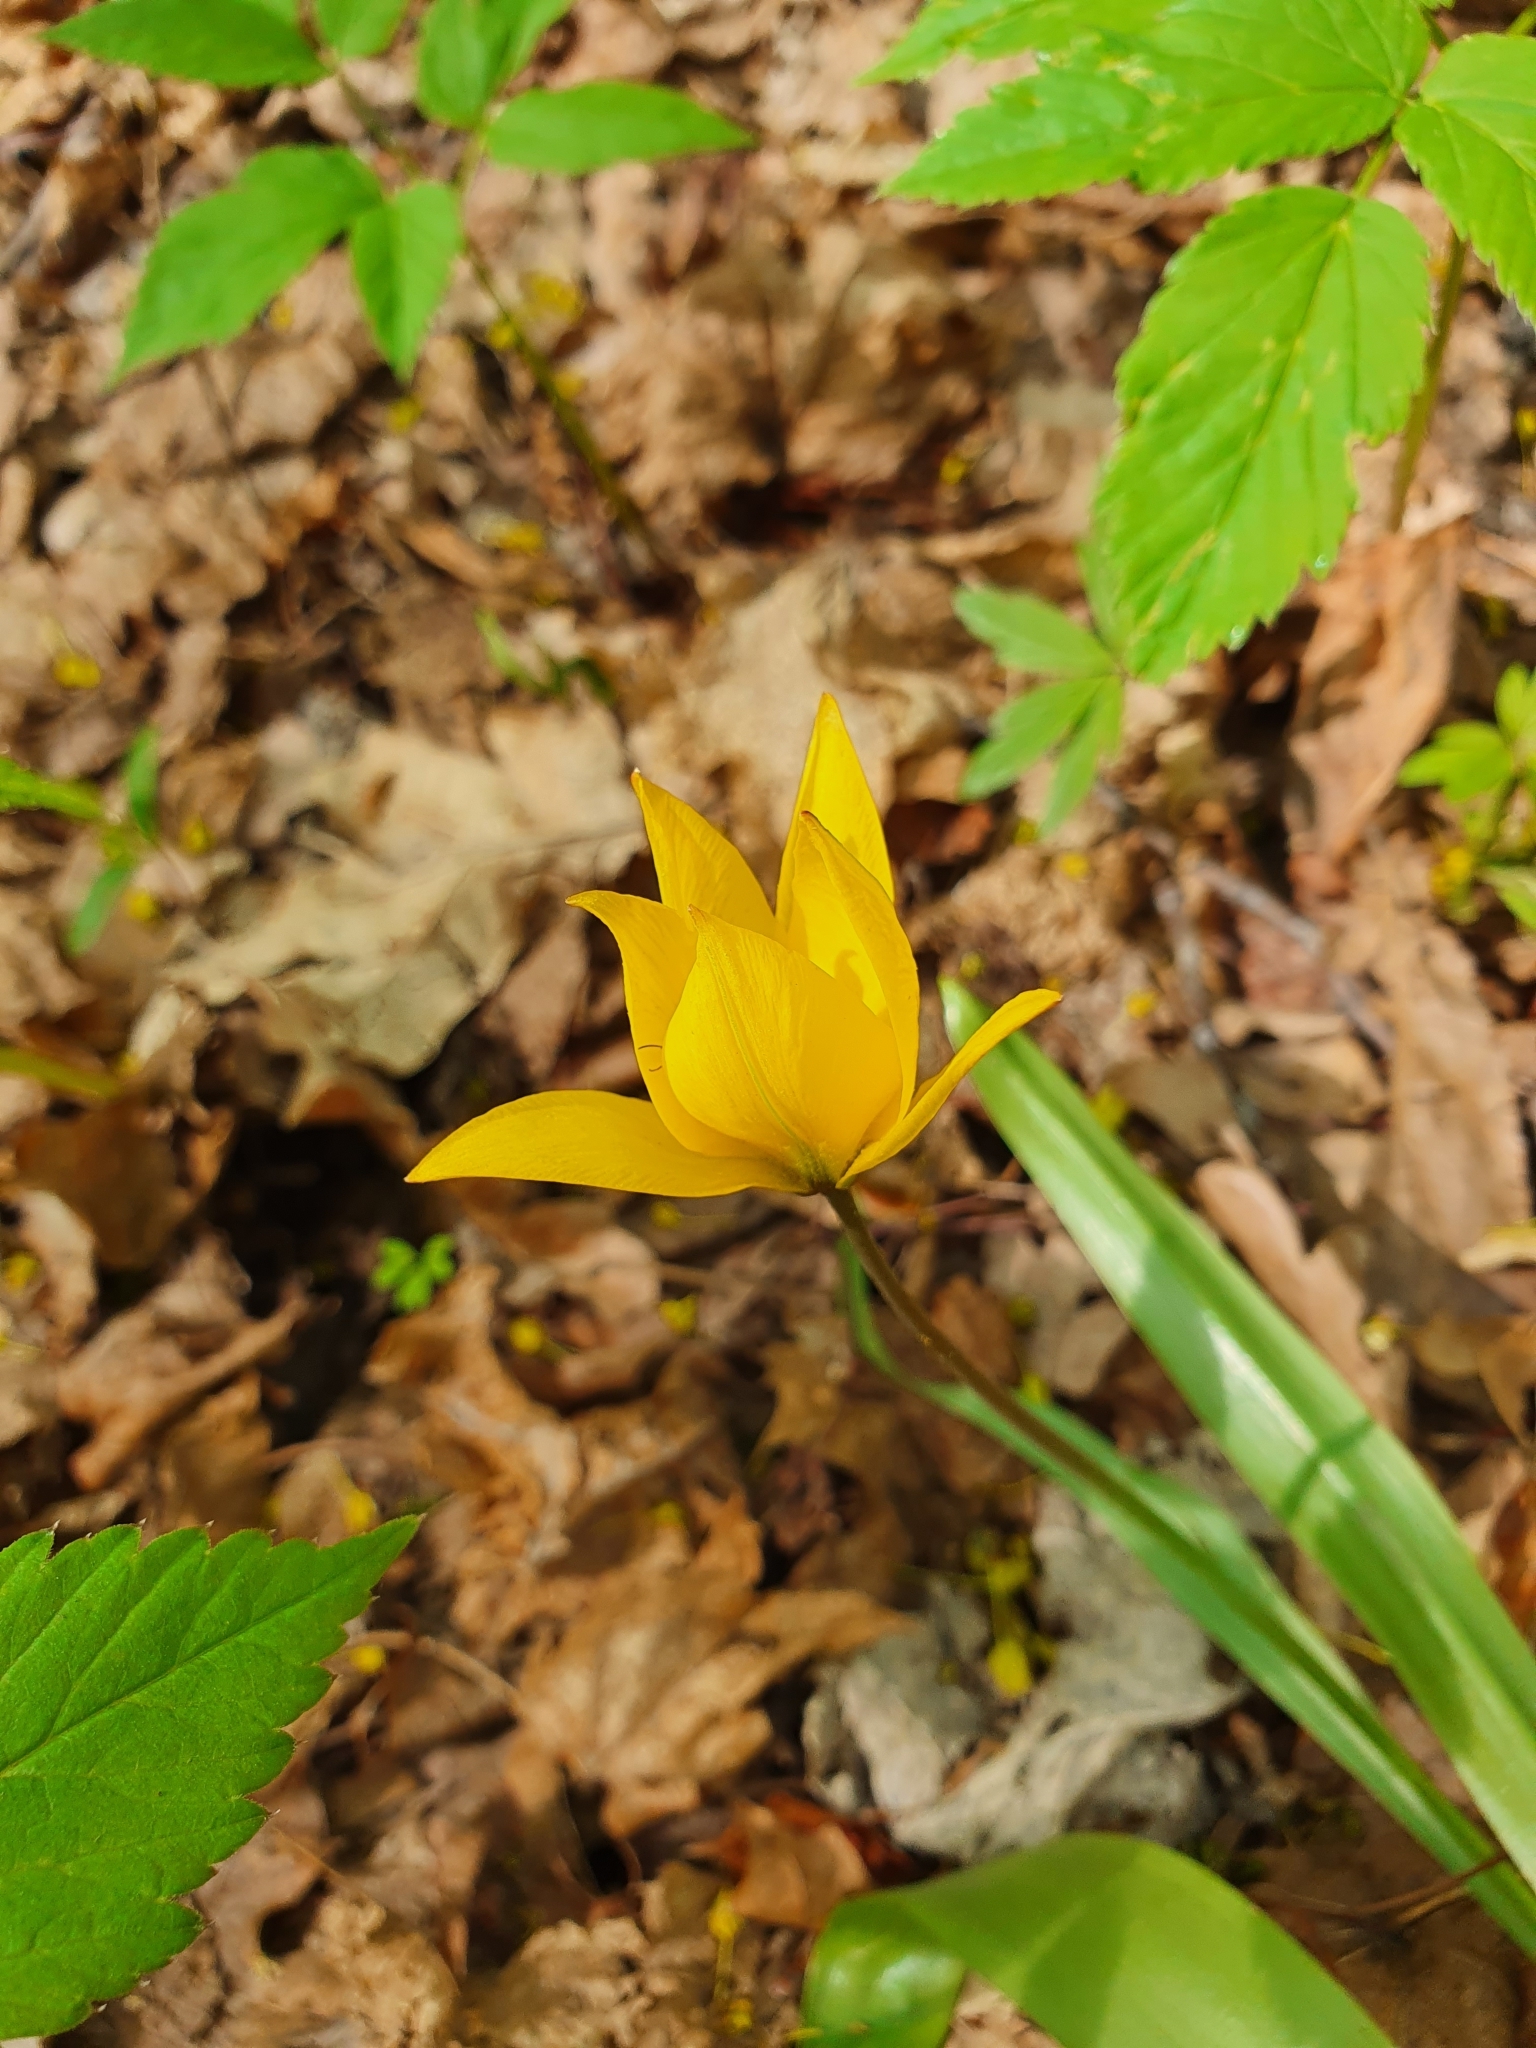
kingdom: Plantae
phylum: Tracheophyta
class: Liliopsida
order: Liliales
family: Liliaceae
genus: Tulipa
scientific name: Tulipa sylvestris
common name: Wild tulip
